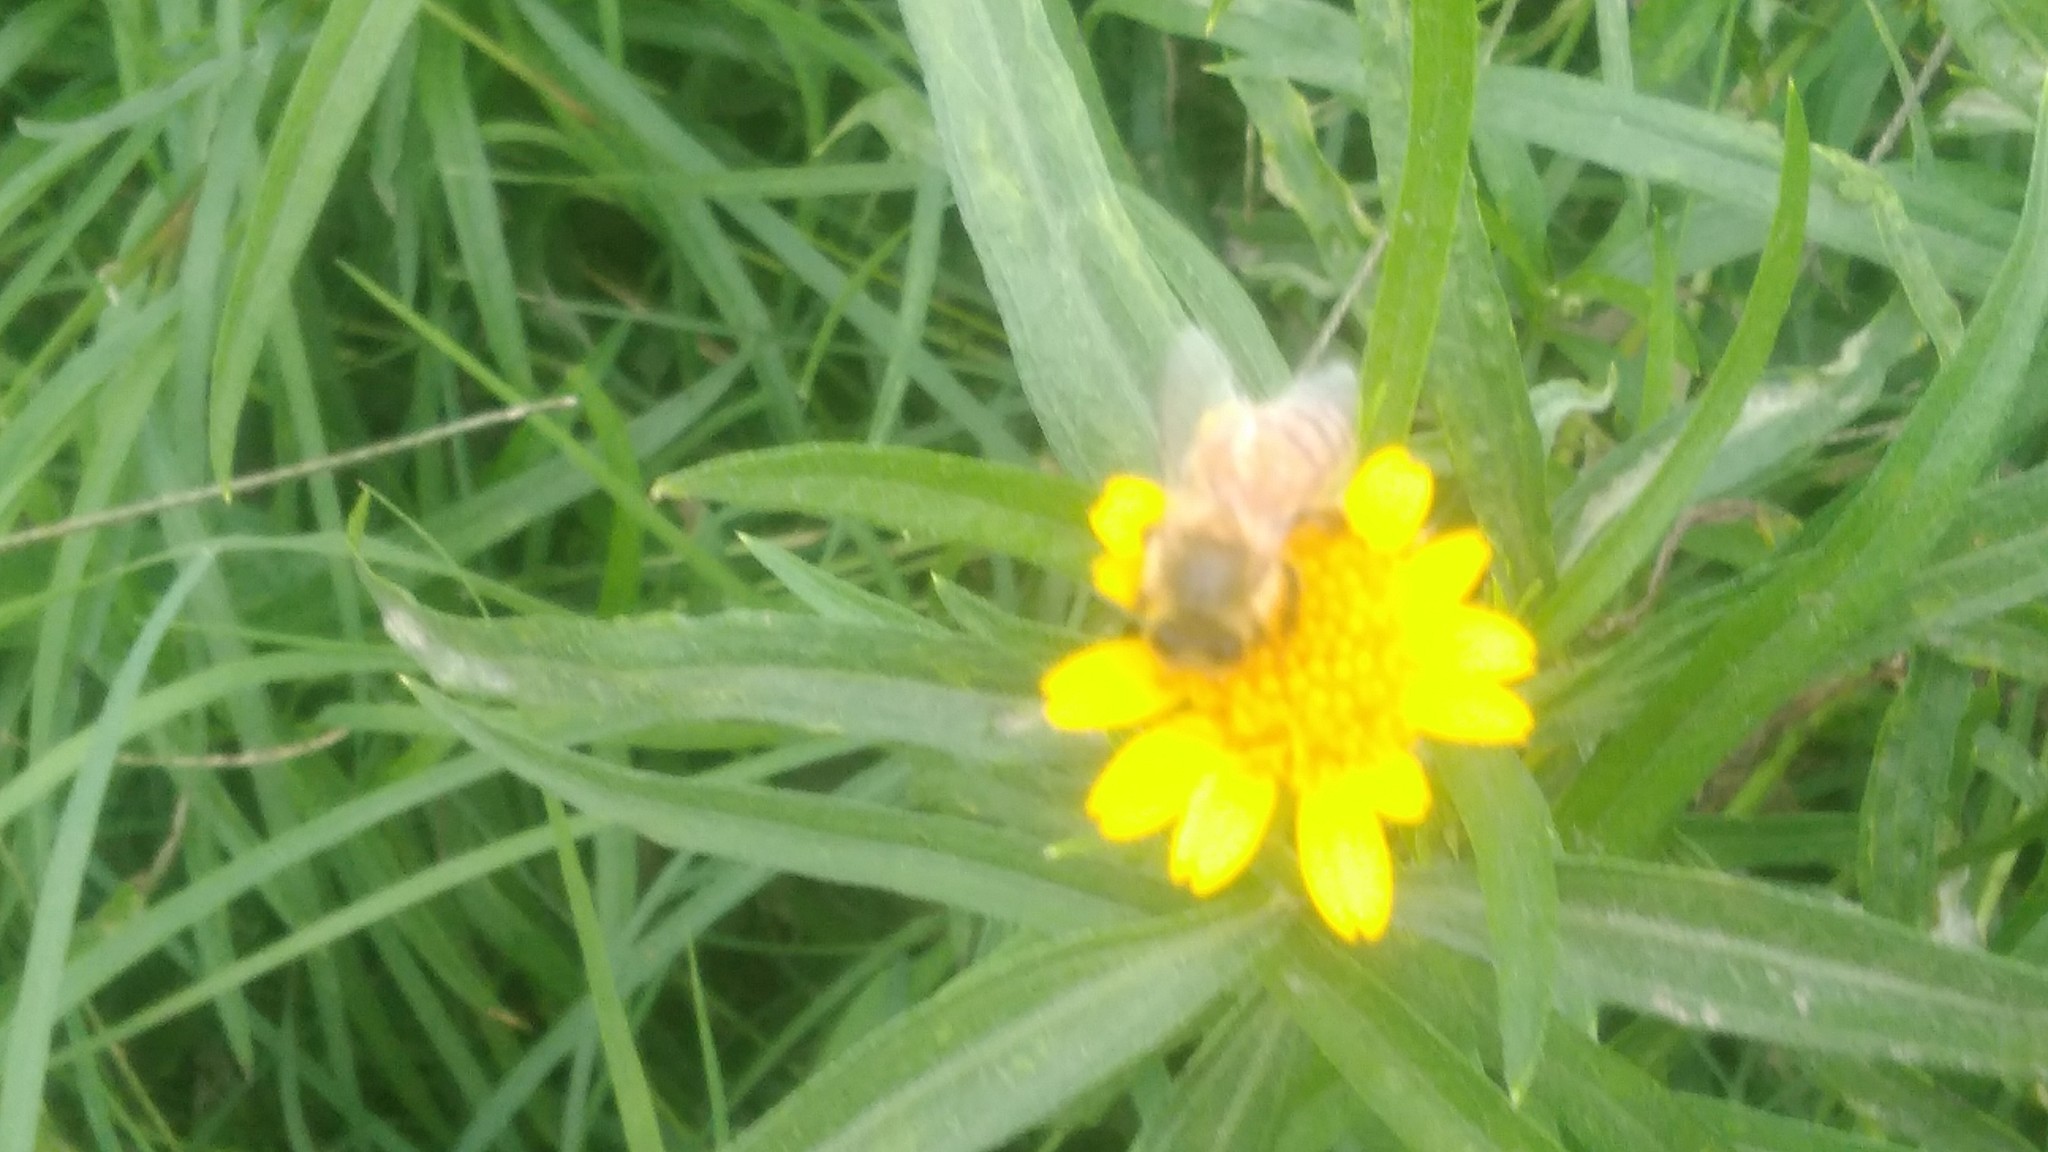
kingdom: Animalia
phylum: Arthropoda
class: Insecta
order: Hymenoptera
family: Apidae
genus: Apis
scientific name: Apis mellifera
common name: Honey bee
